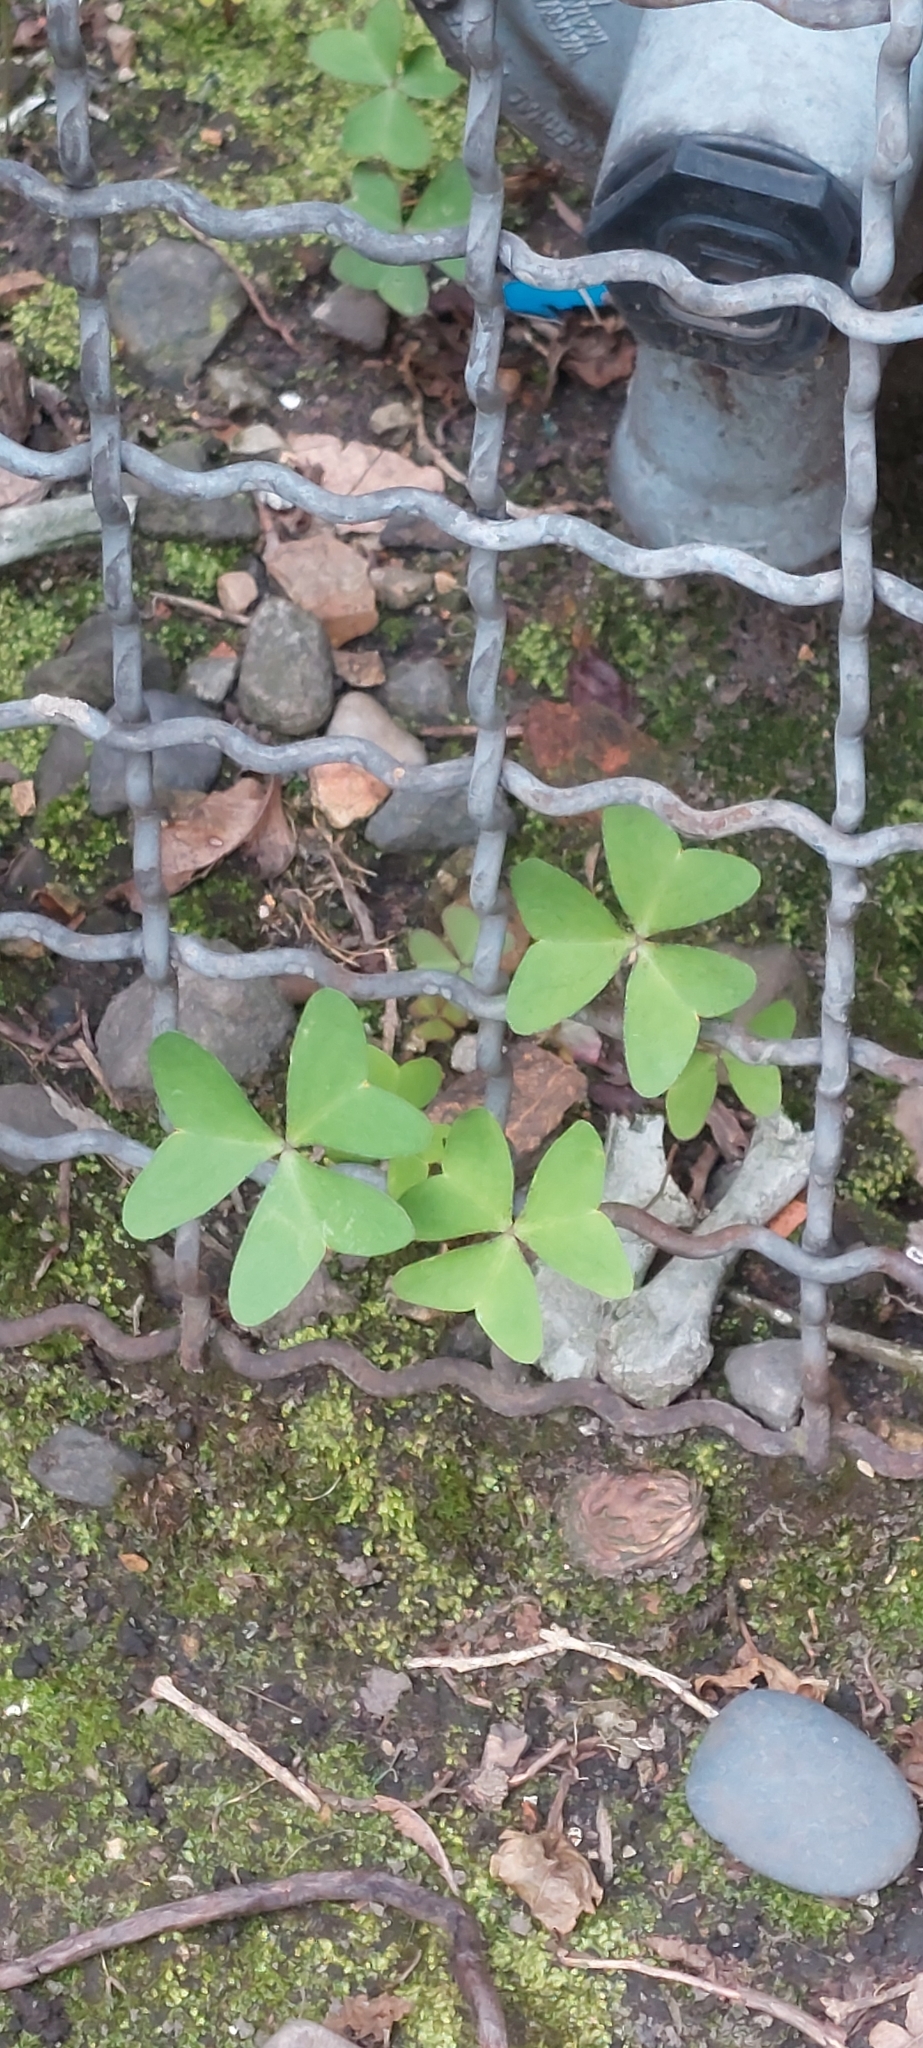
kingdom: Plantae
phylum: Tracheophyta
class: Magnoliopsida
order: Oxalidales
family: Oxalidaceae
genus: Oxalis
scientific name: Oxalis latifolia
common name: Garden pink-sorrel
